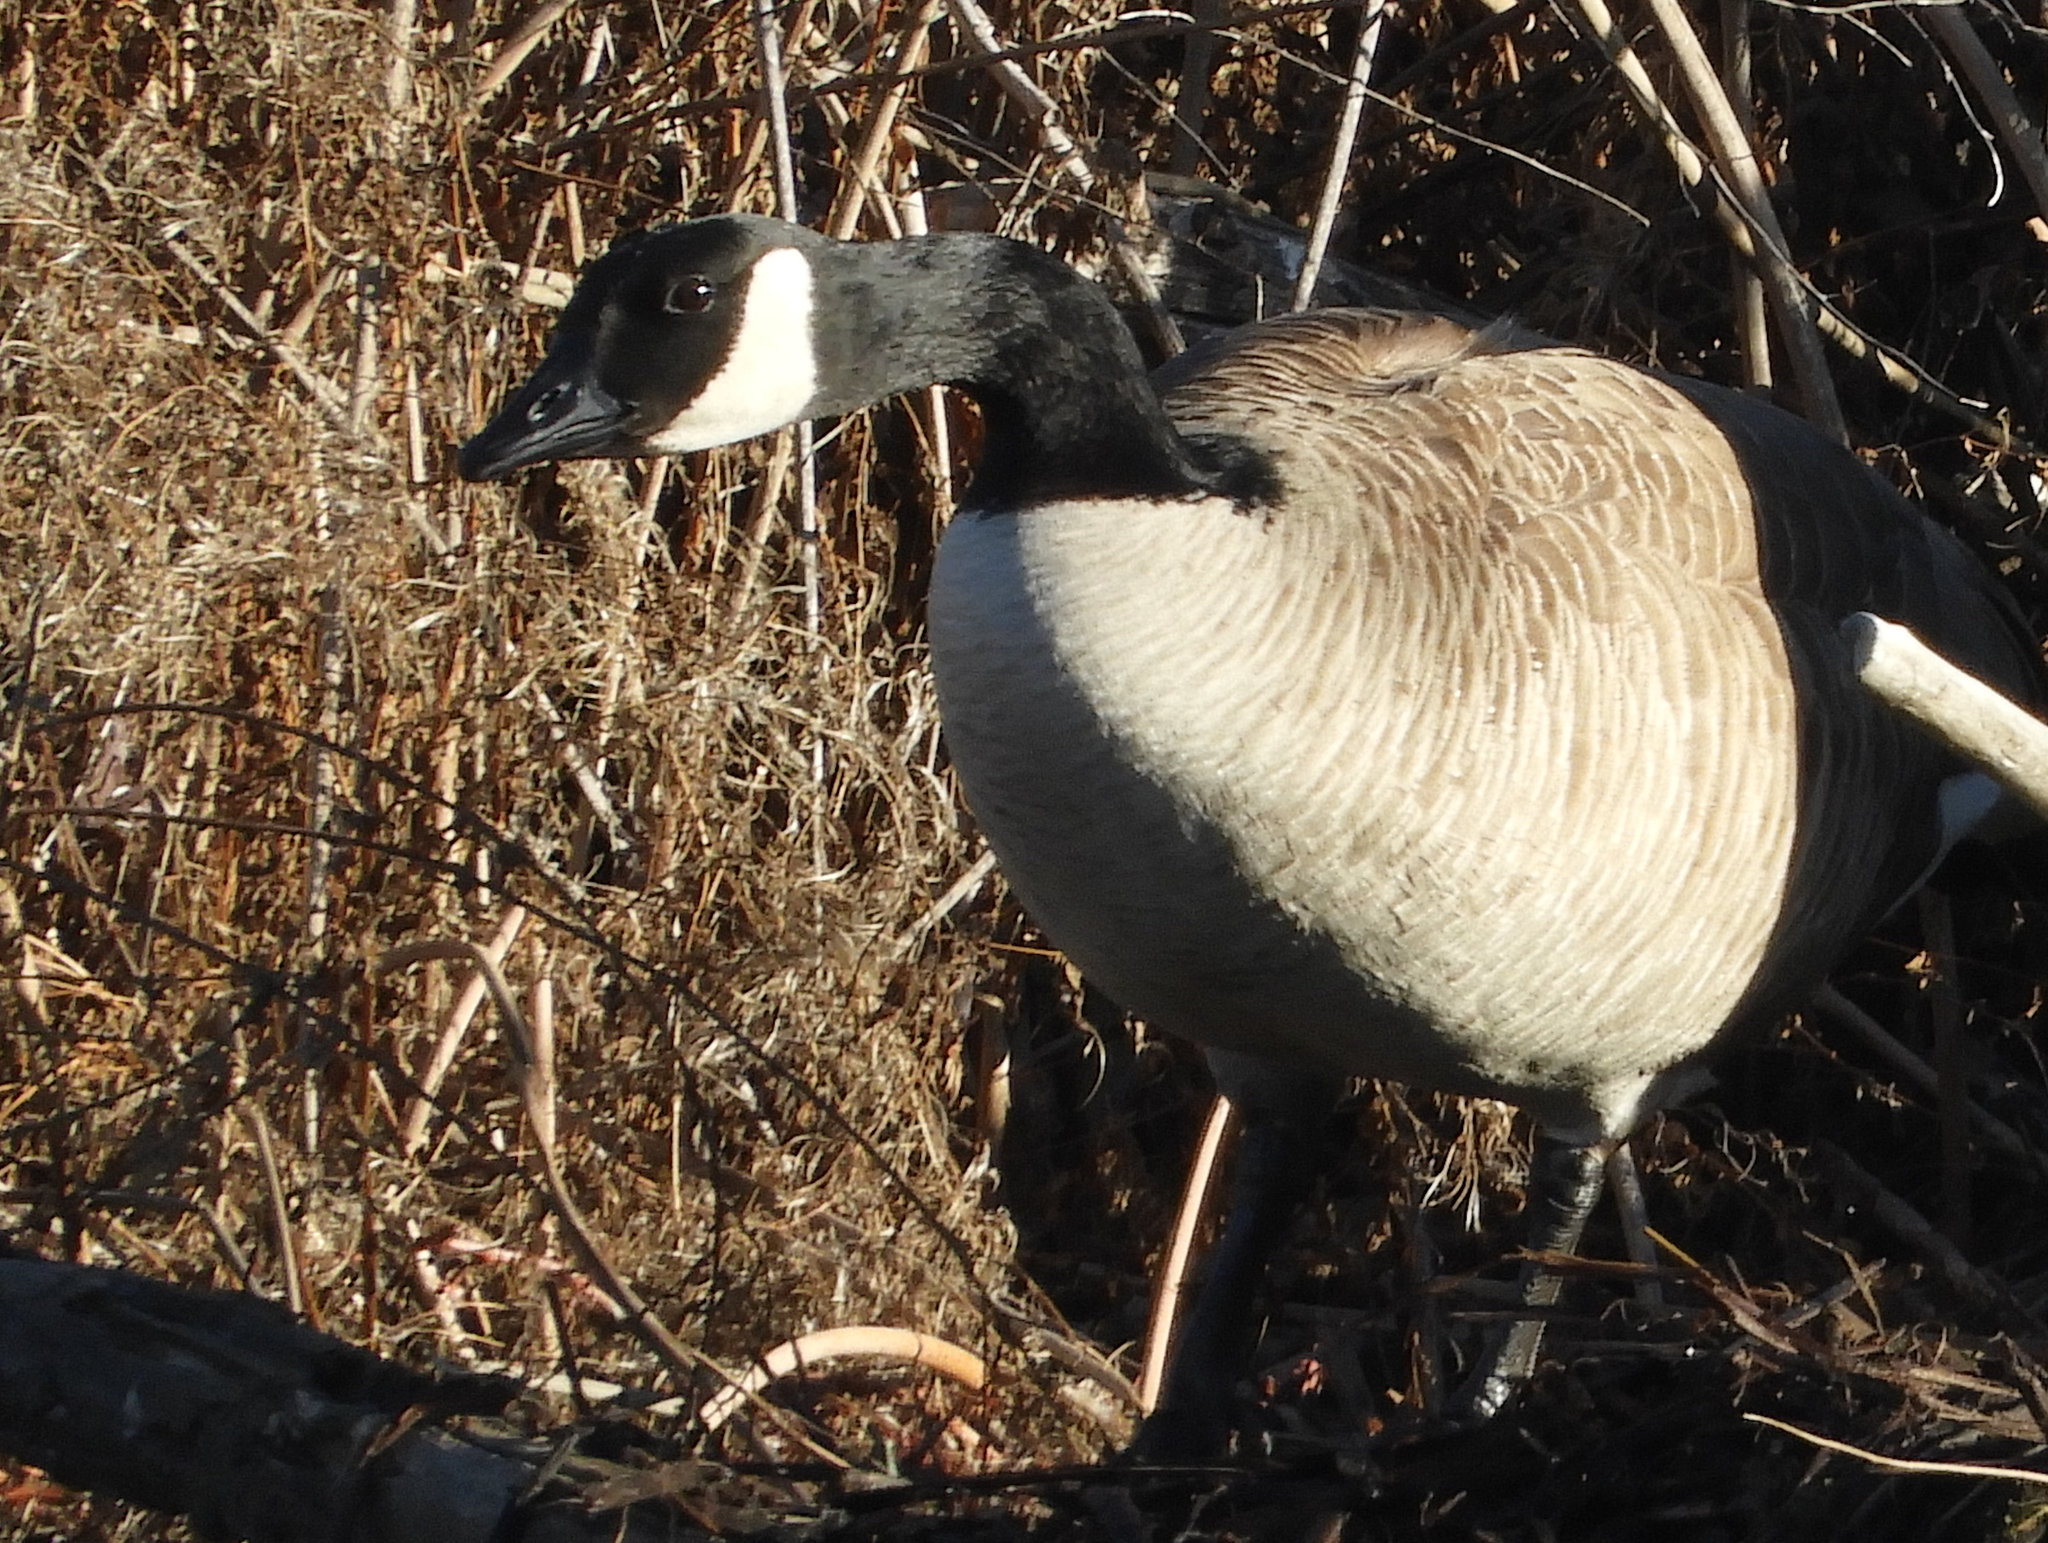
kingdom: Animalia
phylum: Chordata
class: Aves
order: Anseriformes
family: Anatidae
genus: Branta
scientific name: Branta canadensis
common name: Canada goose
